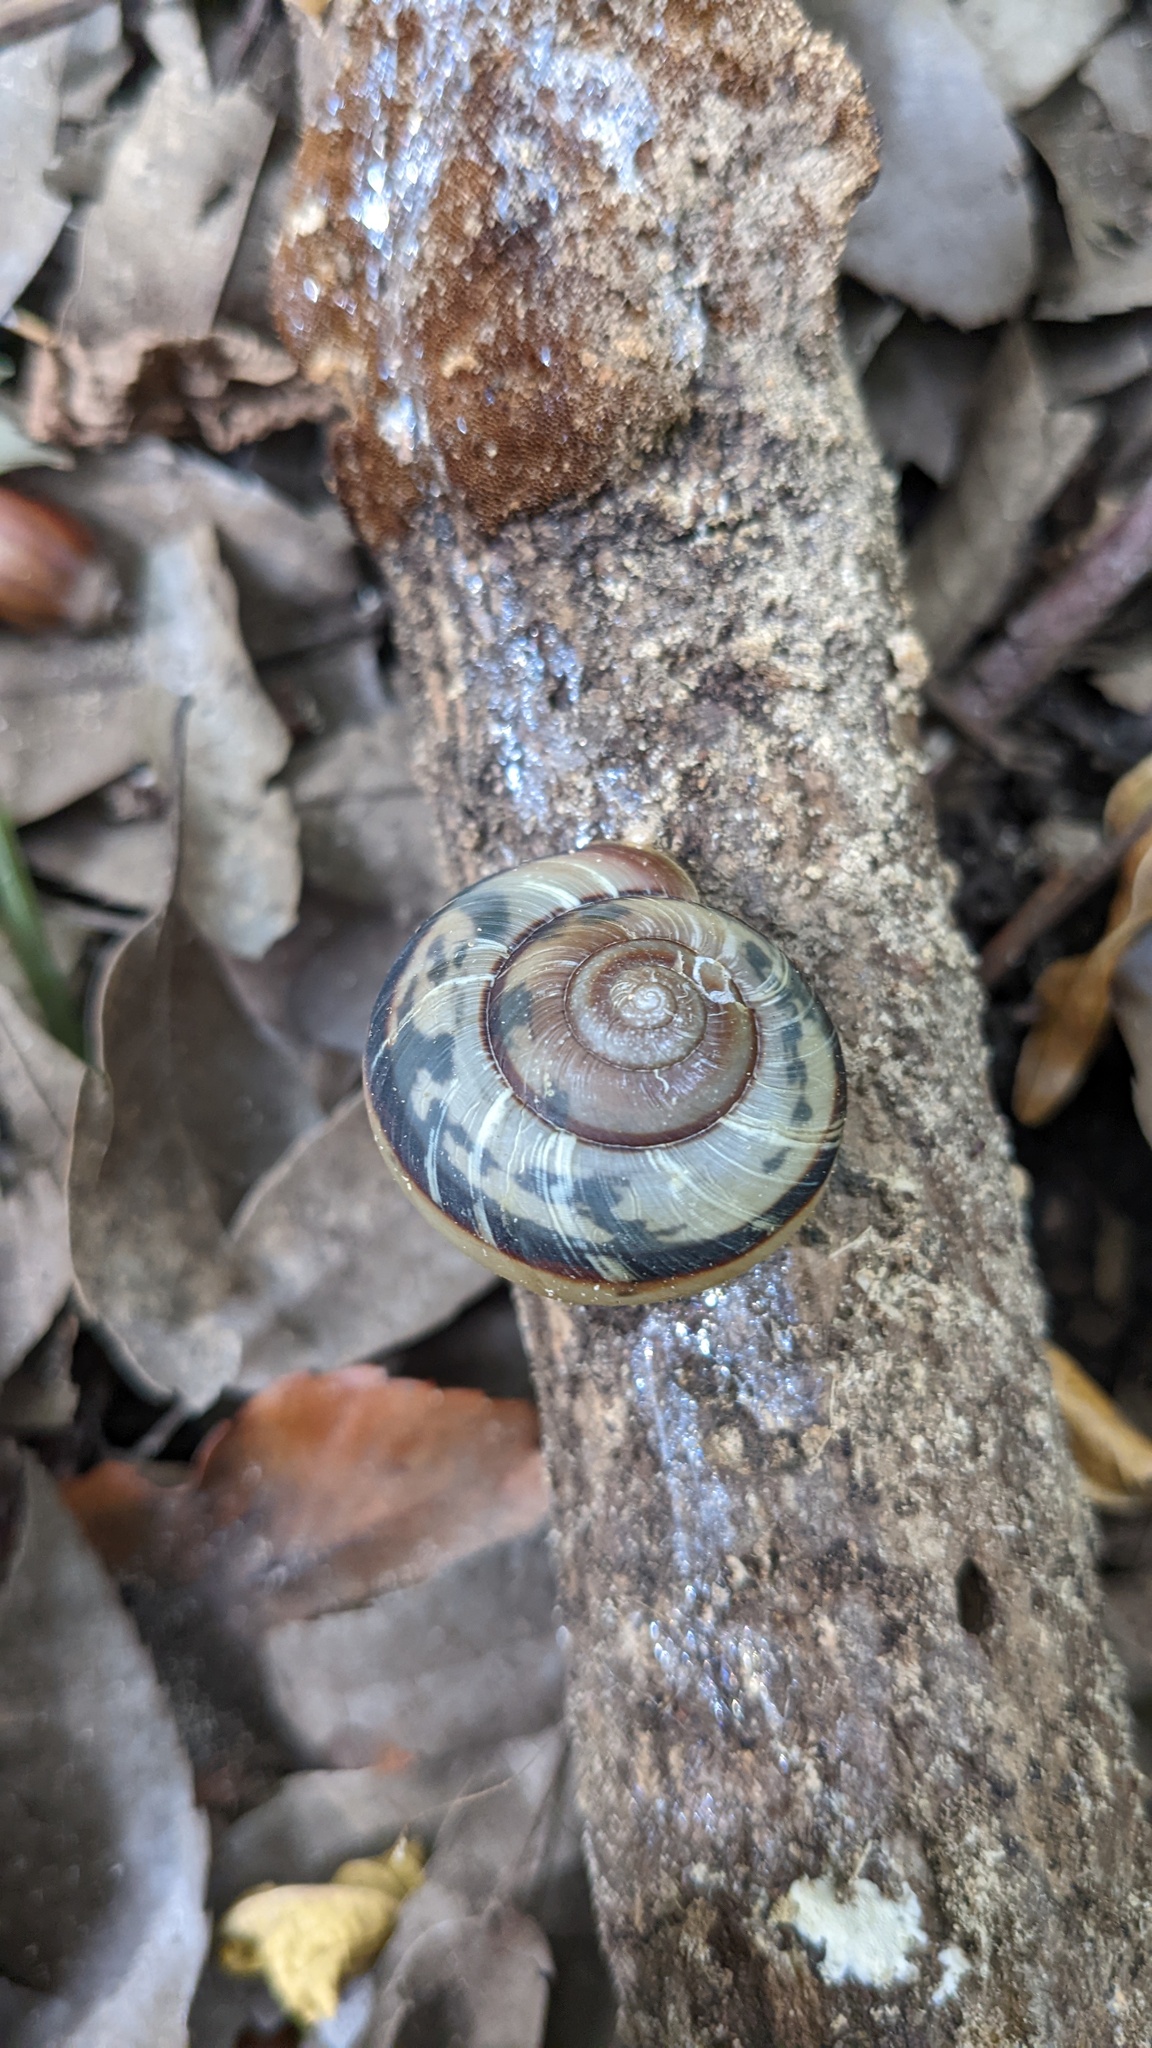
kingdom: Animalia
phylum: Mollusca
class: Gastropoda
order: Stylommatophora
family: Camaenidae
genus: Euhadra
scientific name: Euhadra peliomphala
